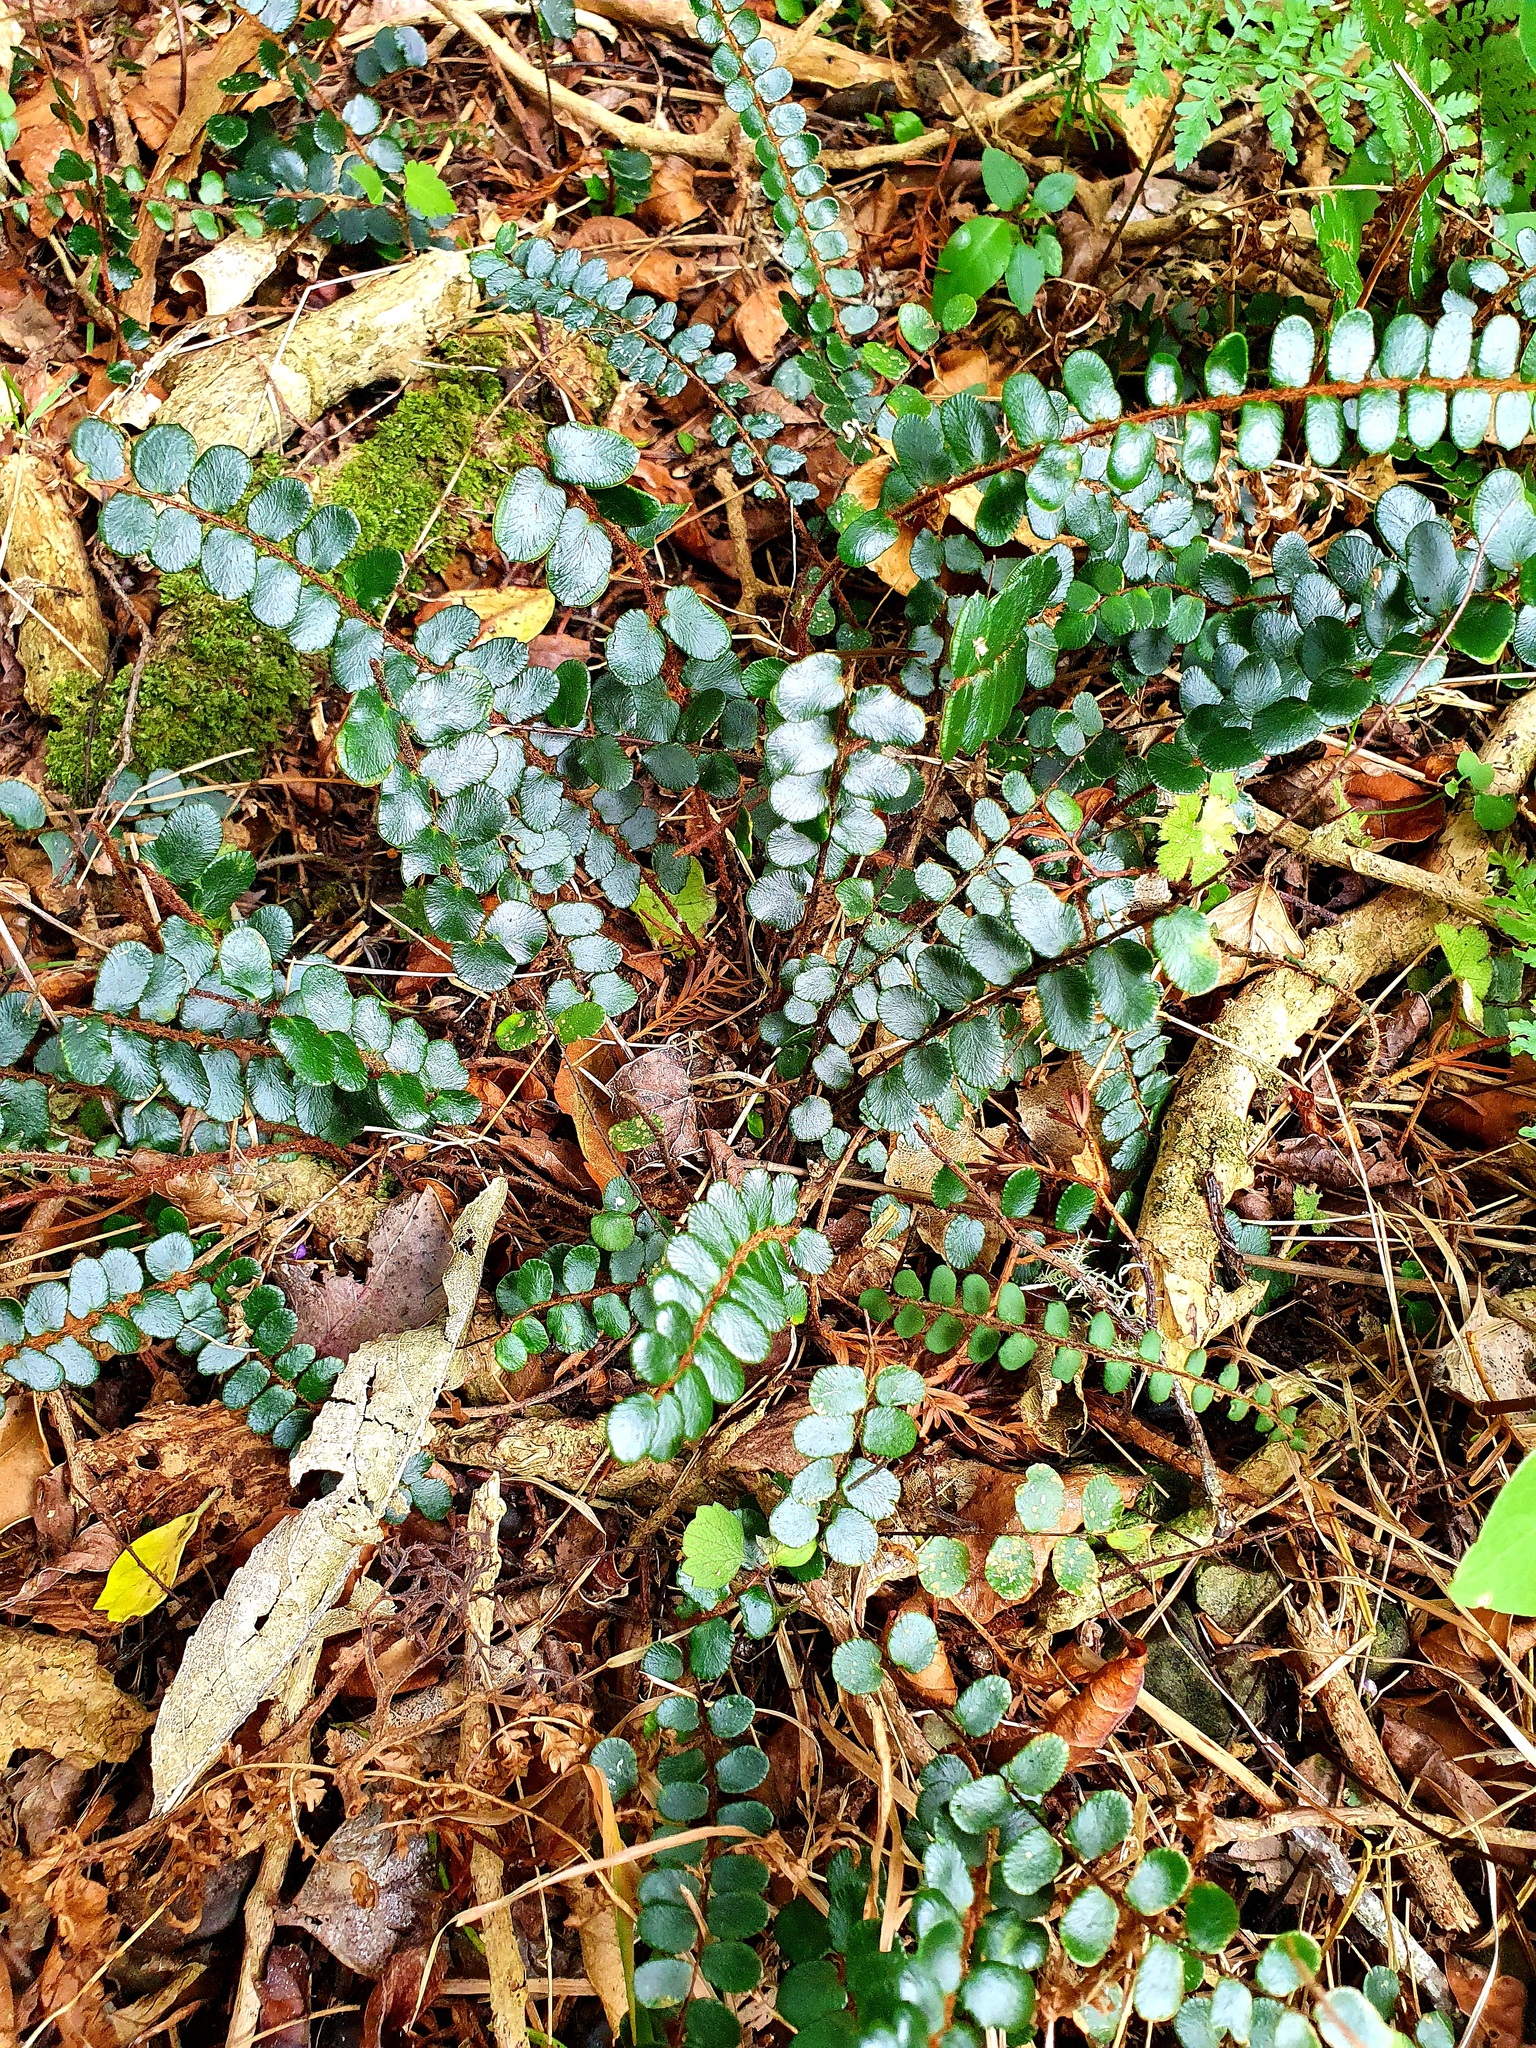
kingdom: Plantae
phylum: Tracheophyta
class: Polypodiopsida
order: Polypodiales
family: Pteridaceae
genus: Pellaea
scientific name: Pellaea rotundifolia
